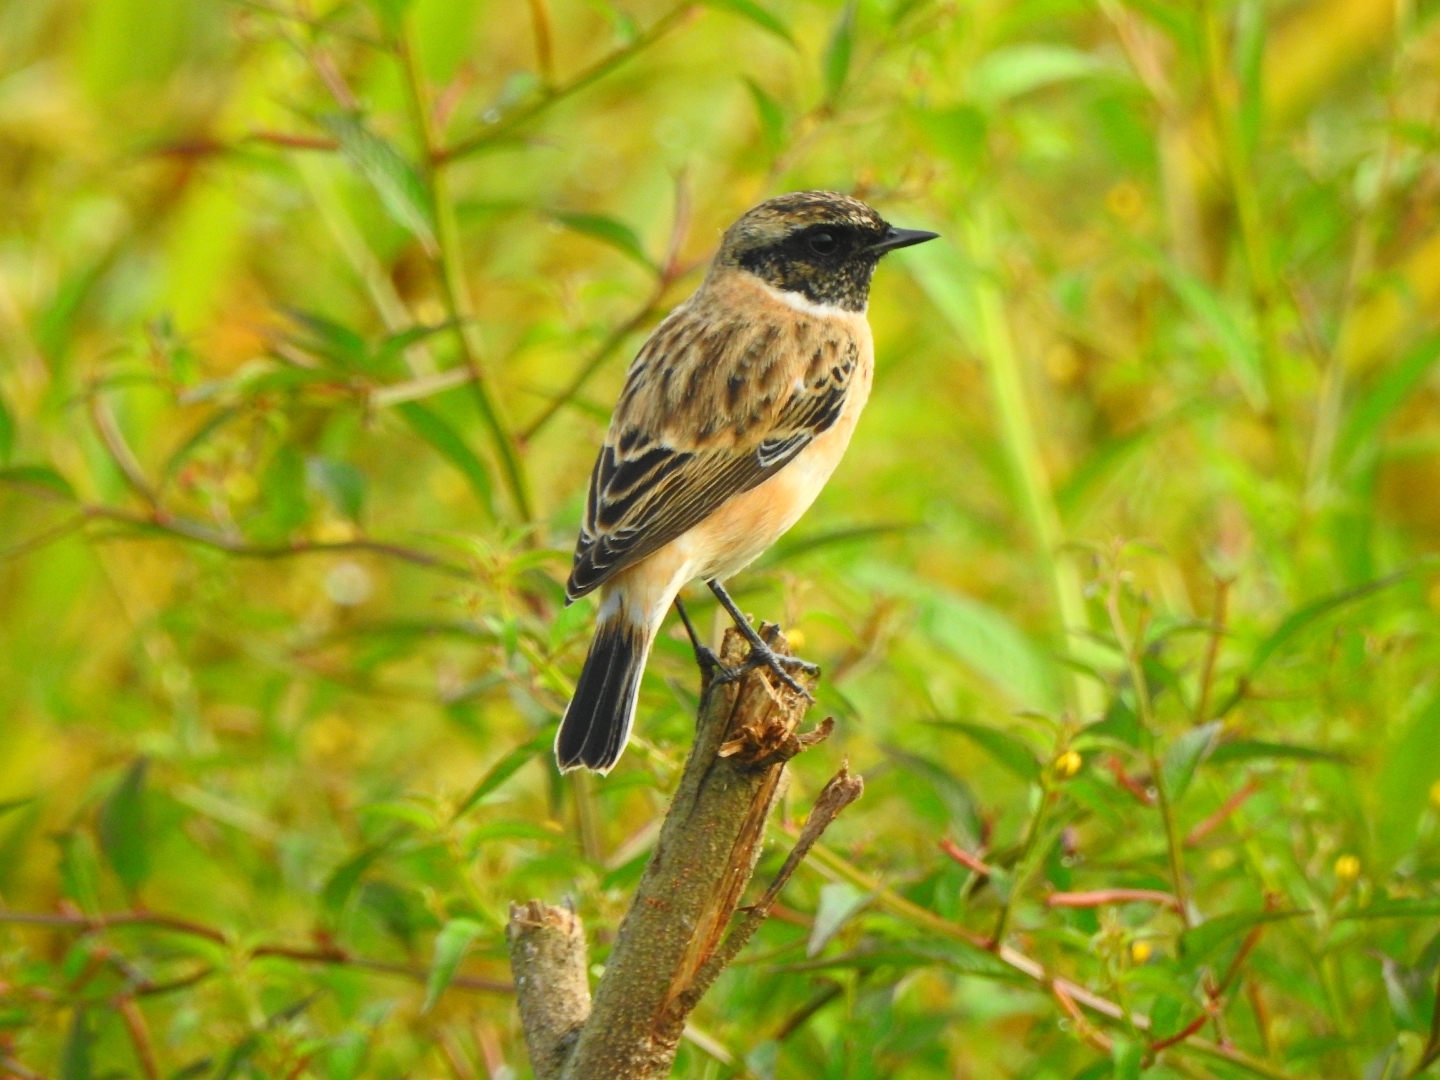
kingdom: Animalia
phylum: Chordata
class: Aves
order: Passeriformes
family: Muscicapidae
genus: Saxicola
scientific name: Saxicola maurus
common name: Siberian stonechat
